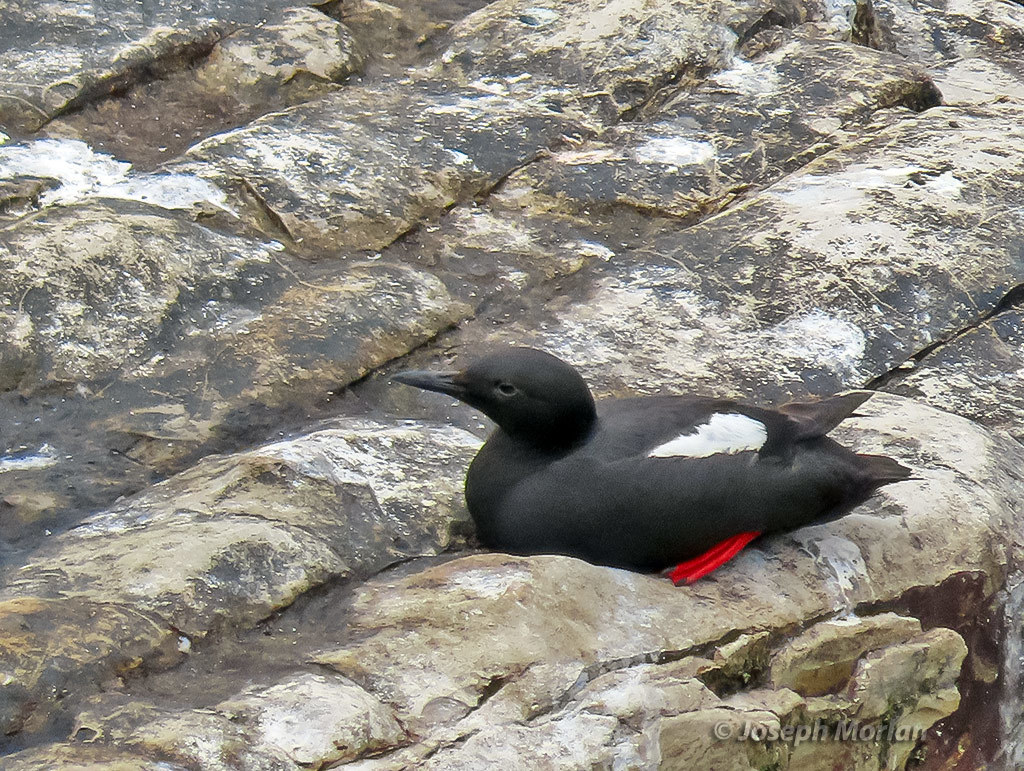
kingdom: Animalia
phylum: Chordata
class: Aves
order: Charadriiformes
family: Alcidae
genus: Cepphus
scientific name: Cepphus columba
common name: Pigeon guillemot
